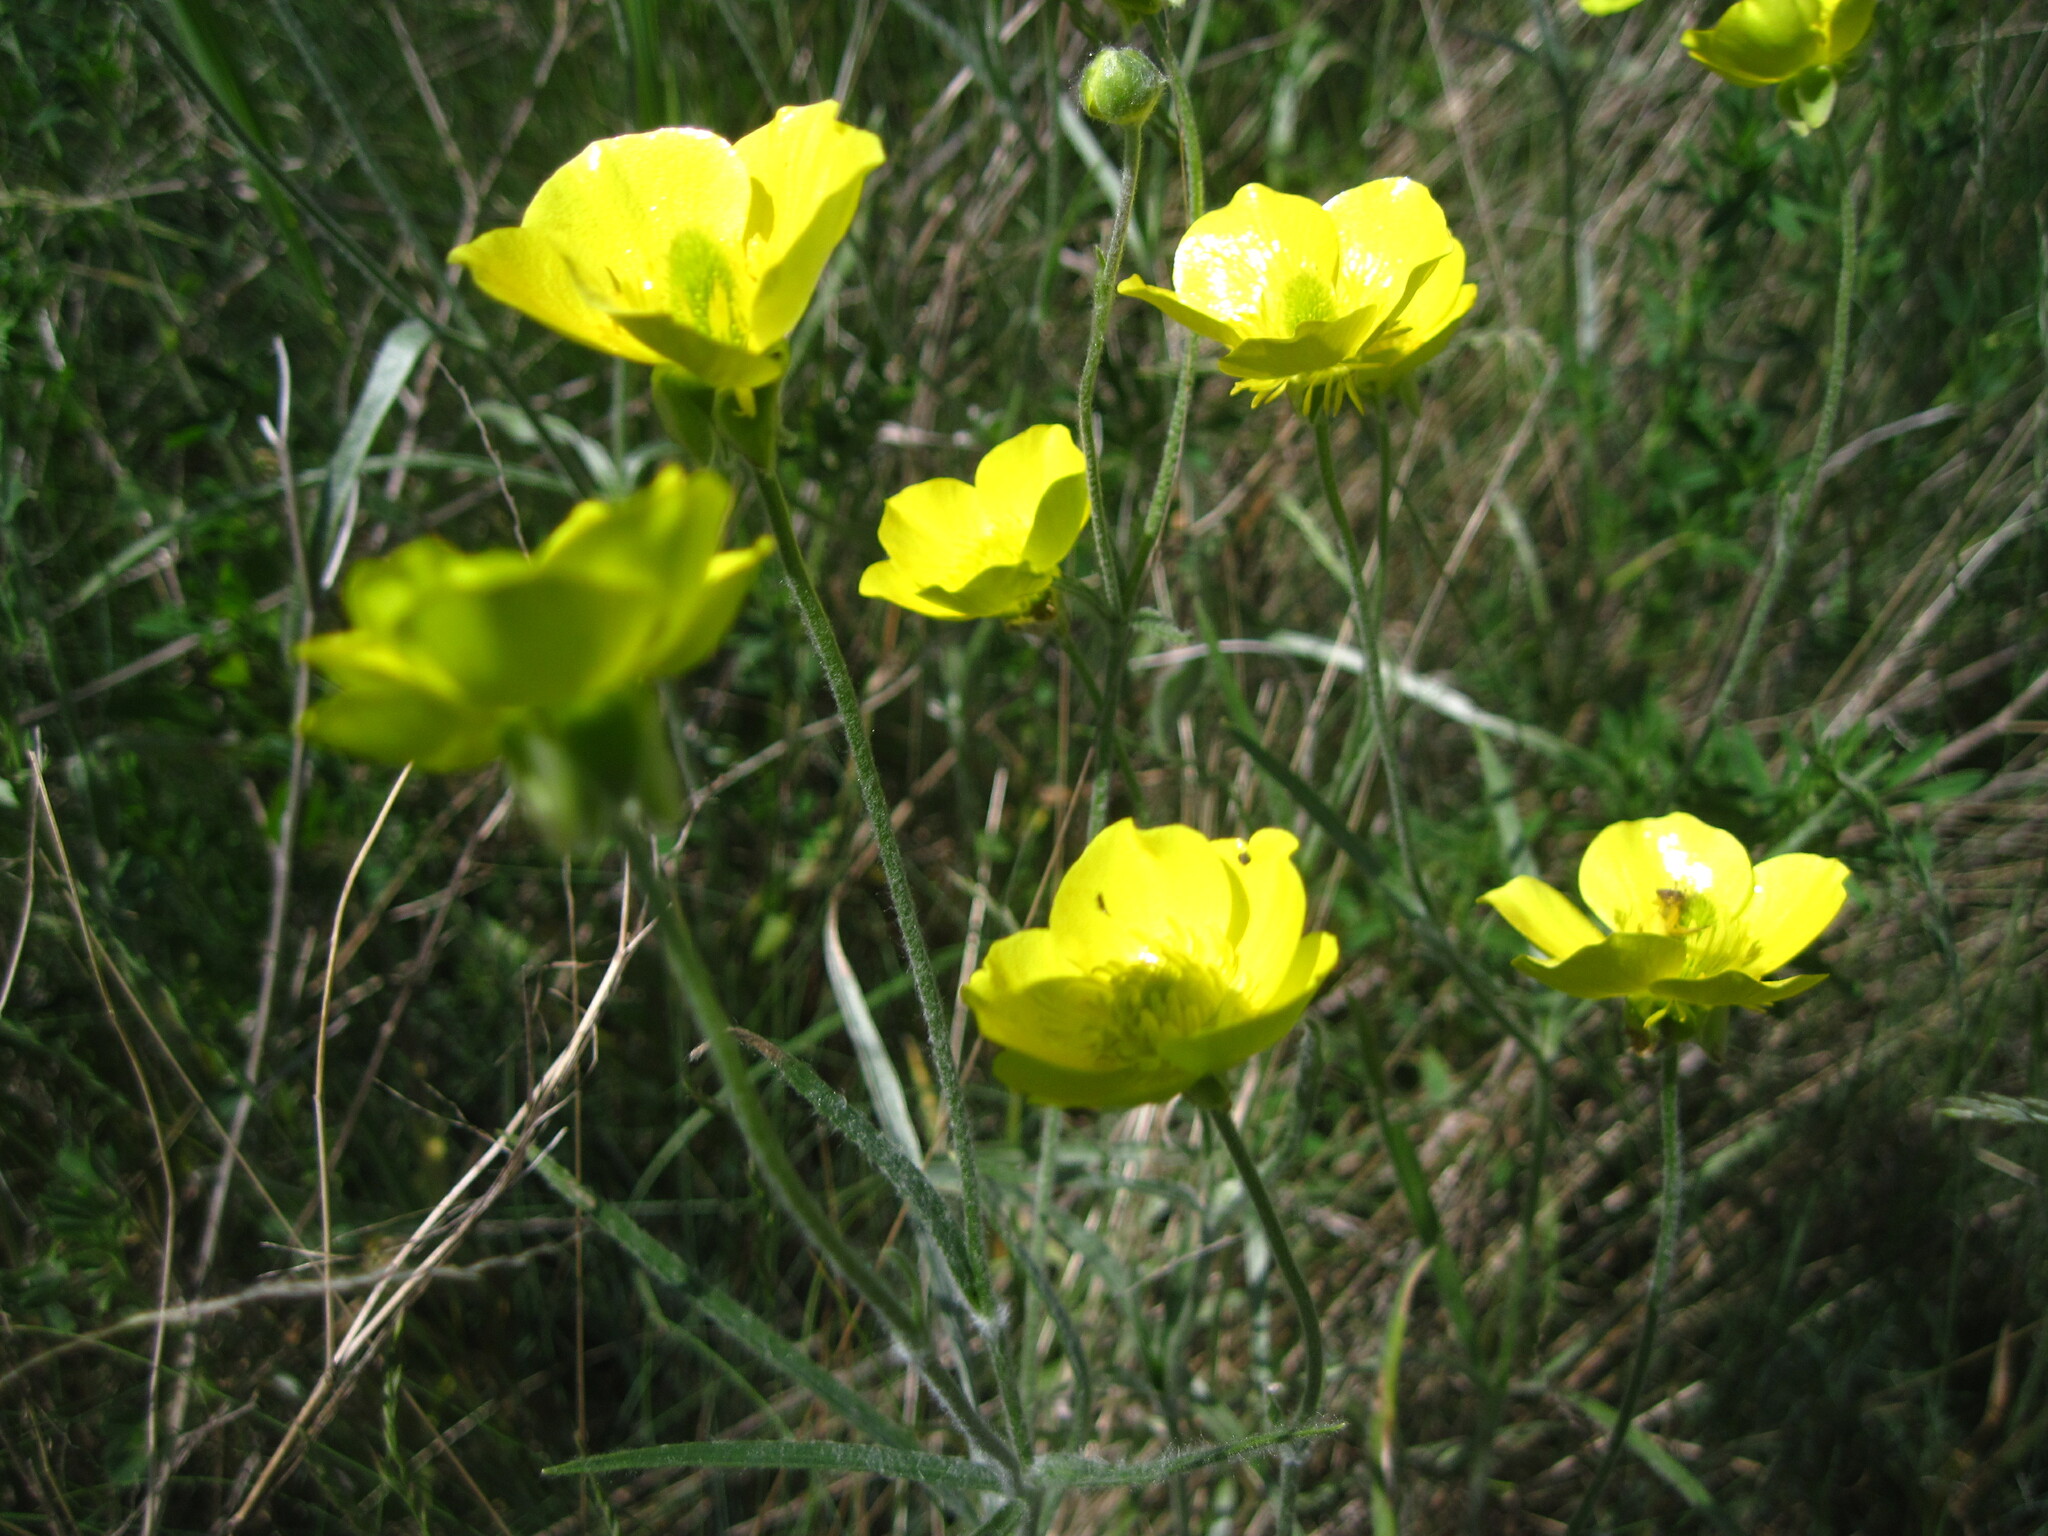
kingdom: Plantae
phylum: Tracheophyta
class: Magnoliopsida
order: Ranunculales
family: Ranunculaceae
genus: Ranunculus
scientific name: Ranunculus illyricus
